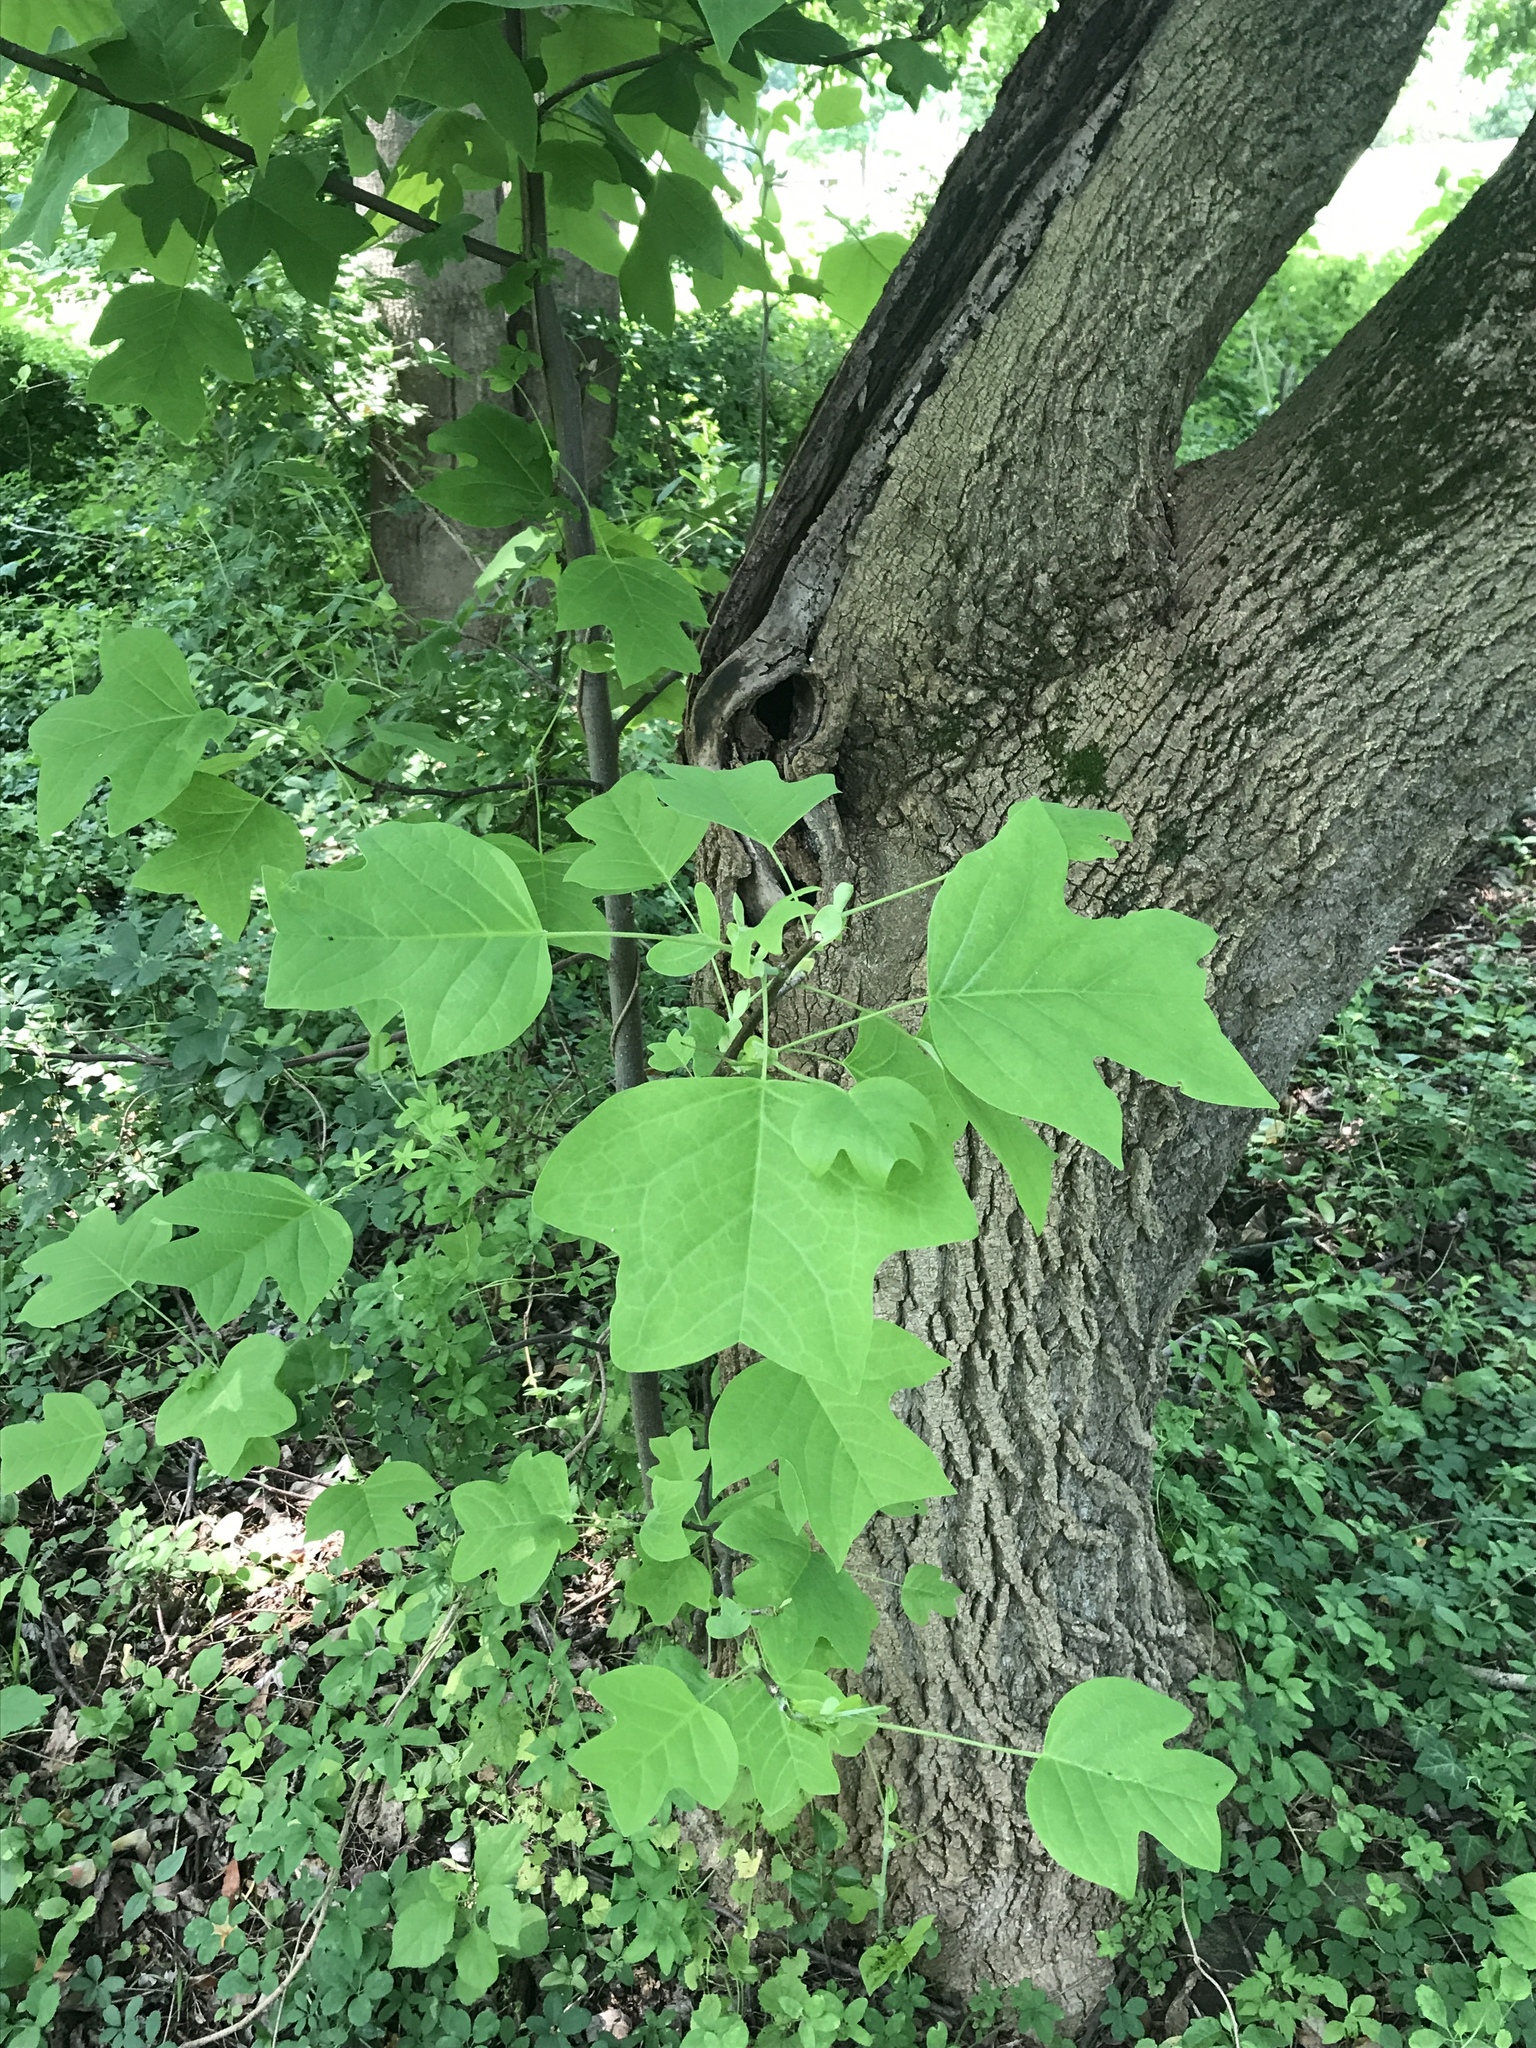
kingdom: Plantae
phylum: Tracheophyta
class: Magnoliopsida
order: Magnoliales
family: Magnoliaceae
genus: Liriodendron
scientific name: Liriodendron tulipifera
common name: Tulip tree
